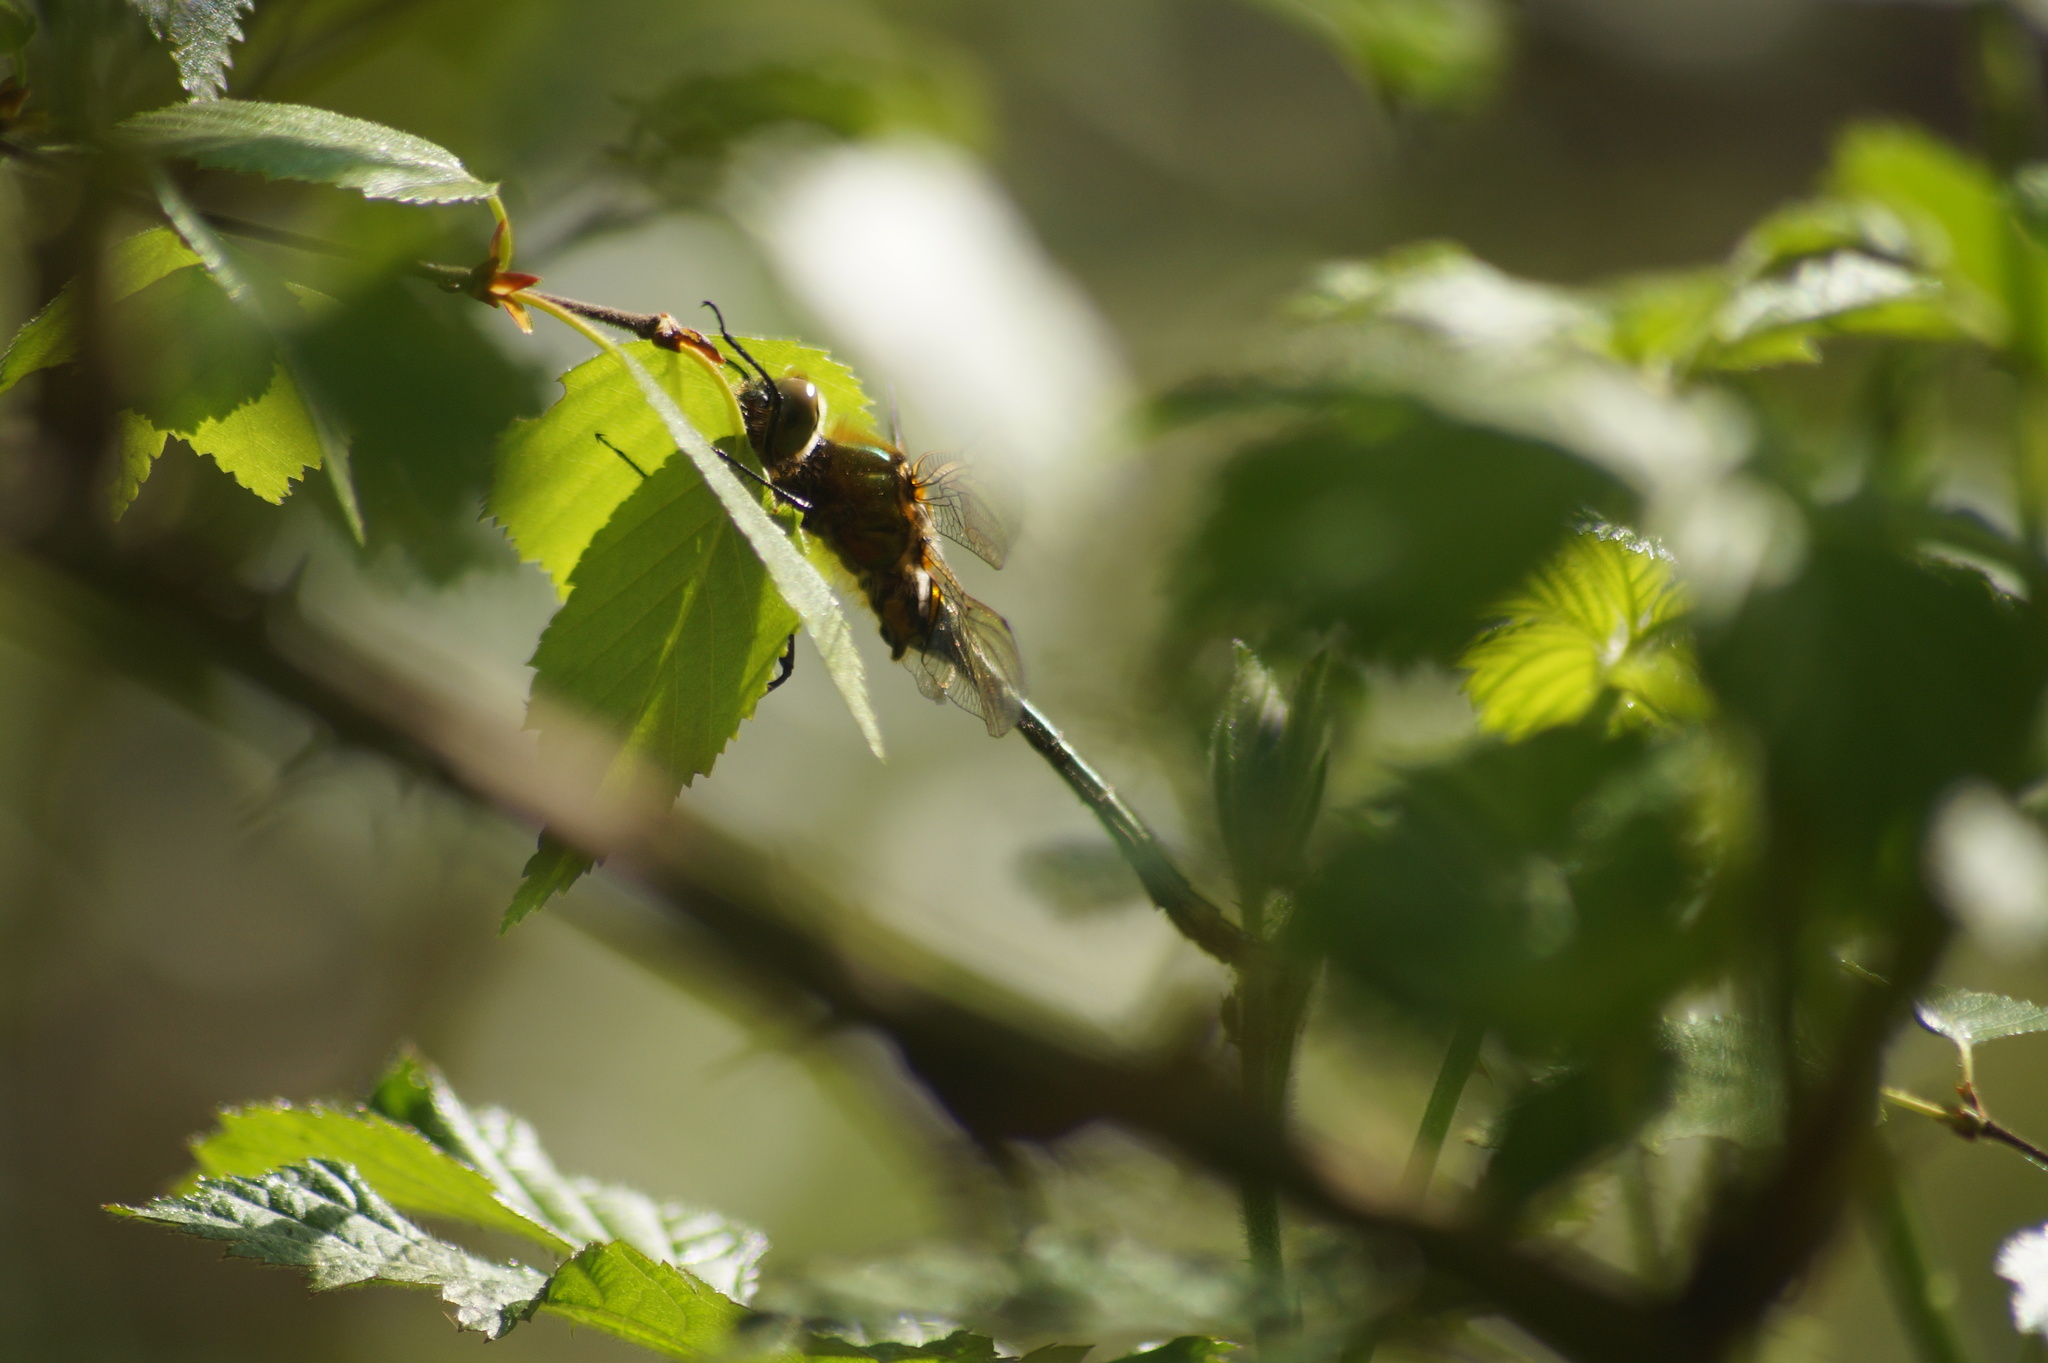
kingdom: Animalia
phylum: Arthropoda
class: Insecta
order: Odonata
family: Corduliidae
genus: Cordulia
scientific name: Cordulia aenea
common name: Downy emerald
